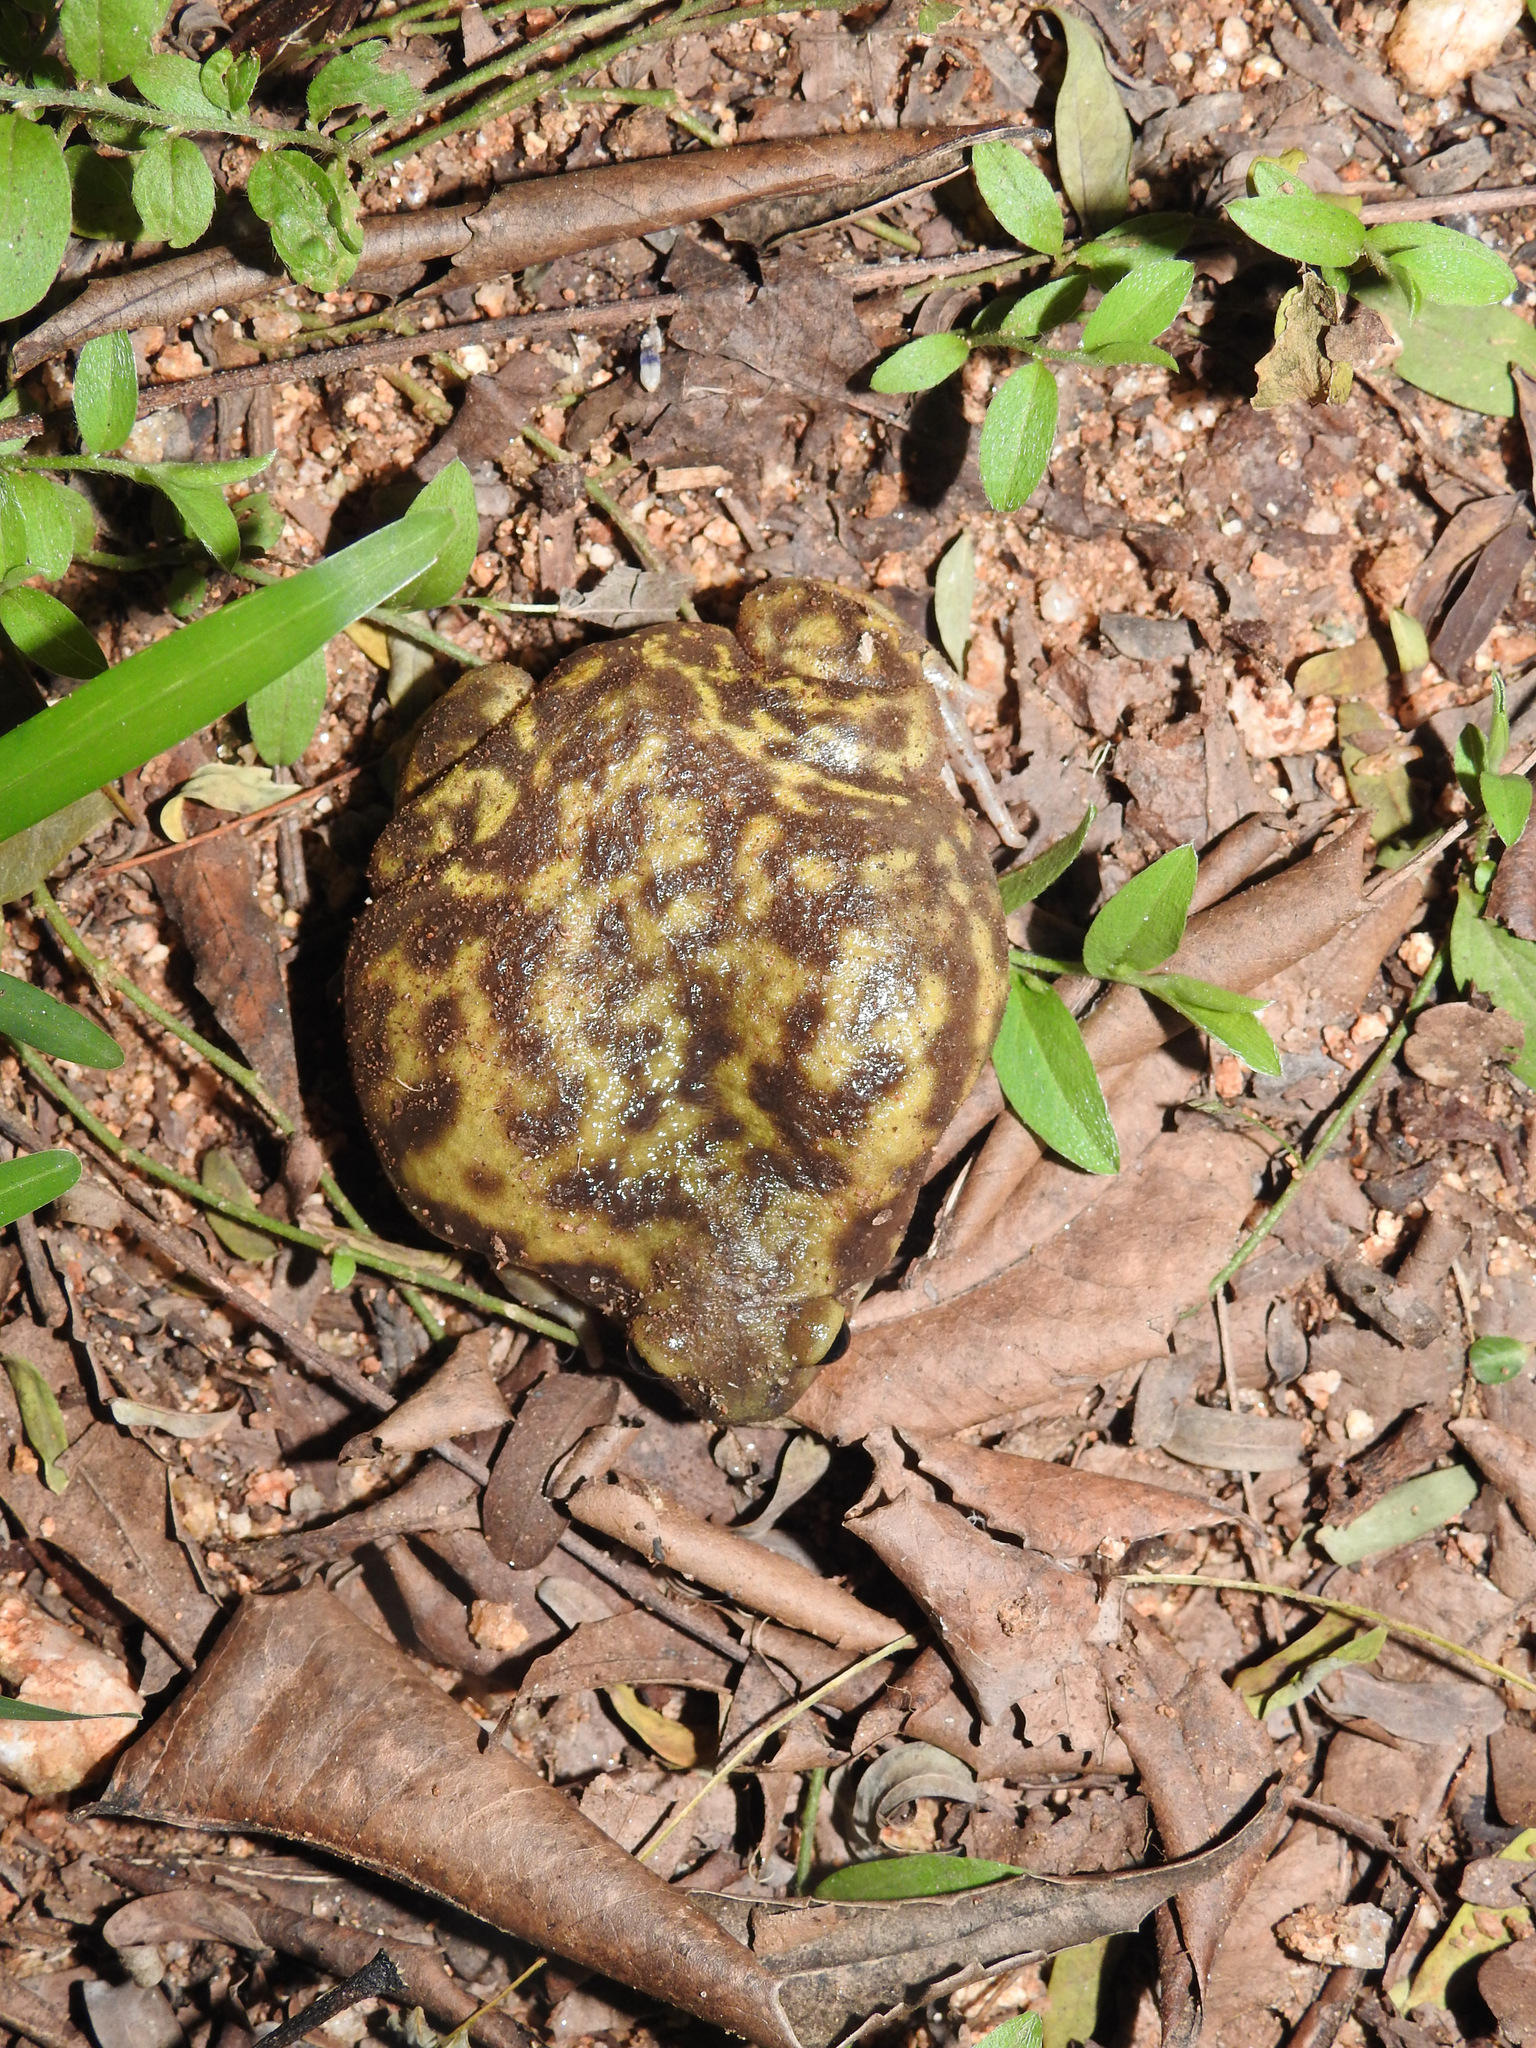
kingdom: Animalia
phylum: Chordata
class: Amphibia
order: Anura
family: Microhylidae
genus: Uperodon
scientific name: Uperodon systoma
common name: Balloon frog
